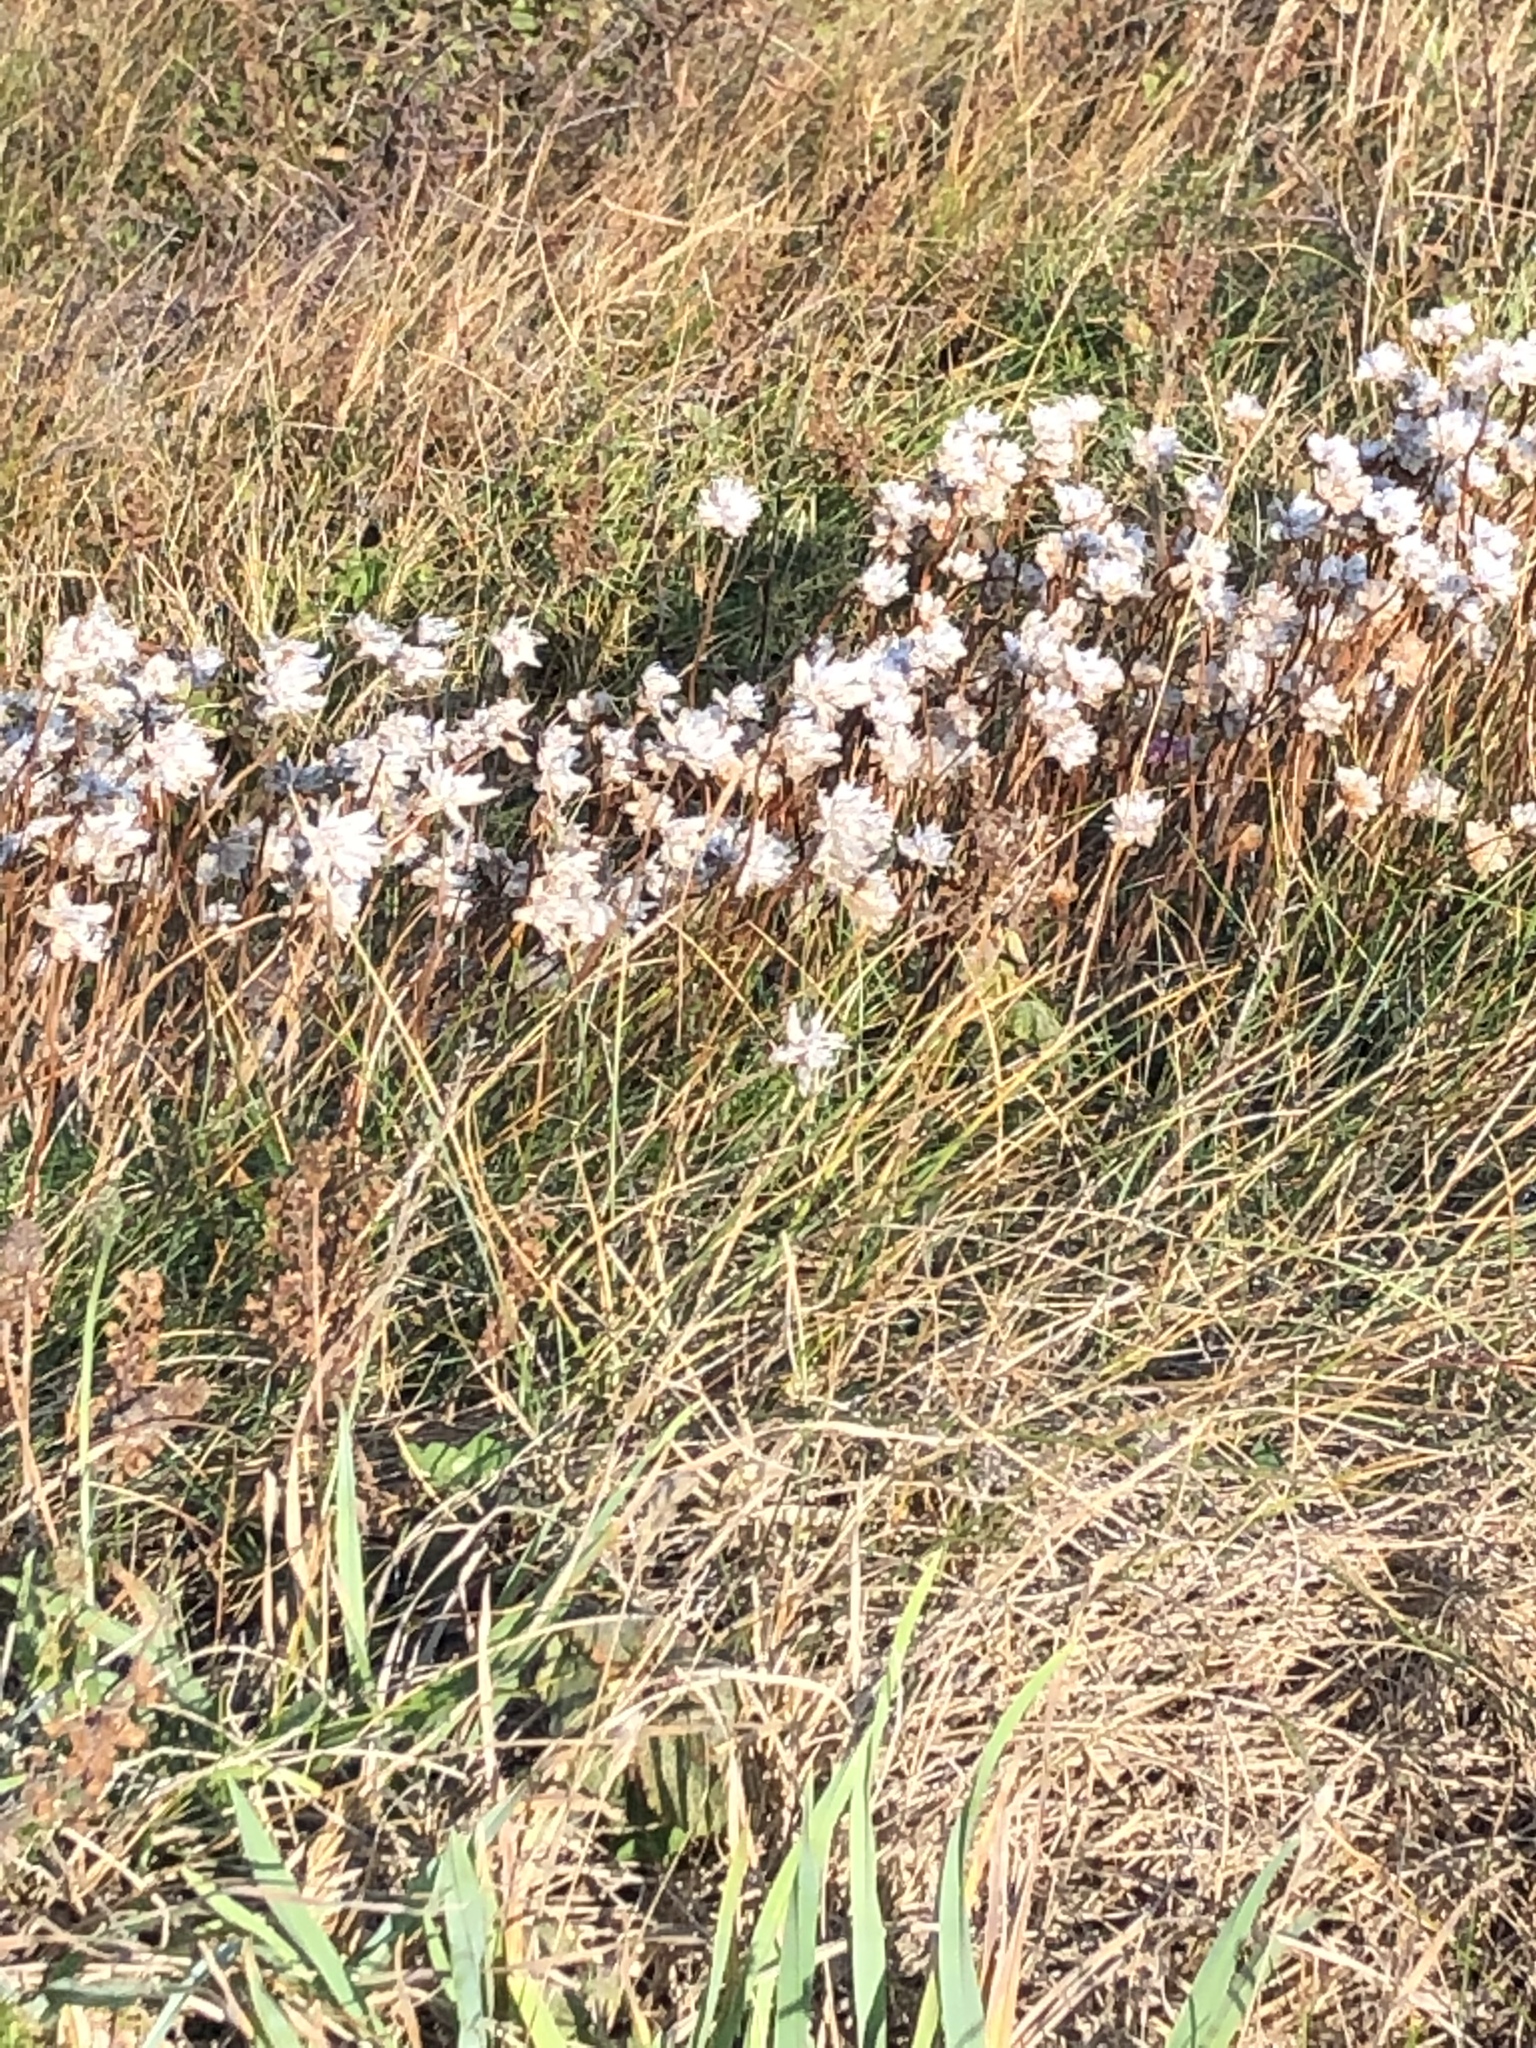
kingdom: Plantae
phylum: Tracheophyta
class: Magnoliopsida
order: Caryophyllales
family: Plumbaginaceae
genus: Armeria
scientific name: Armeria maritima
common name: Thrift
